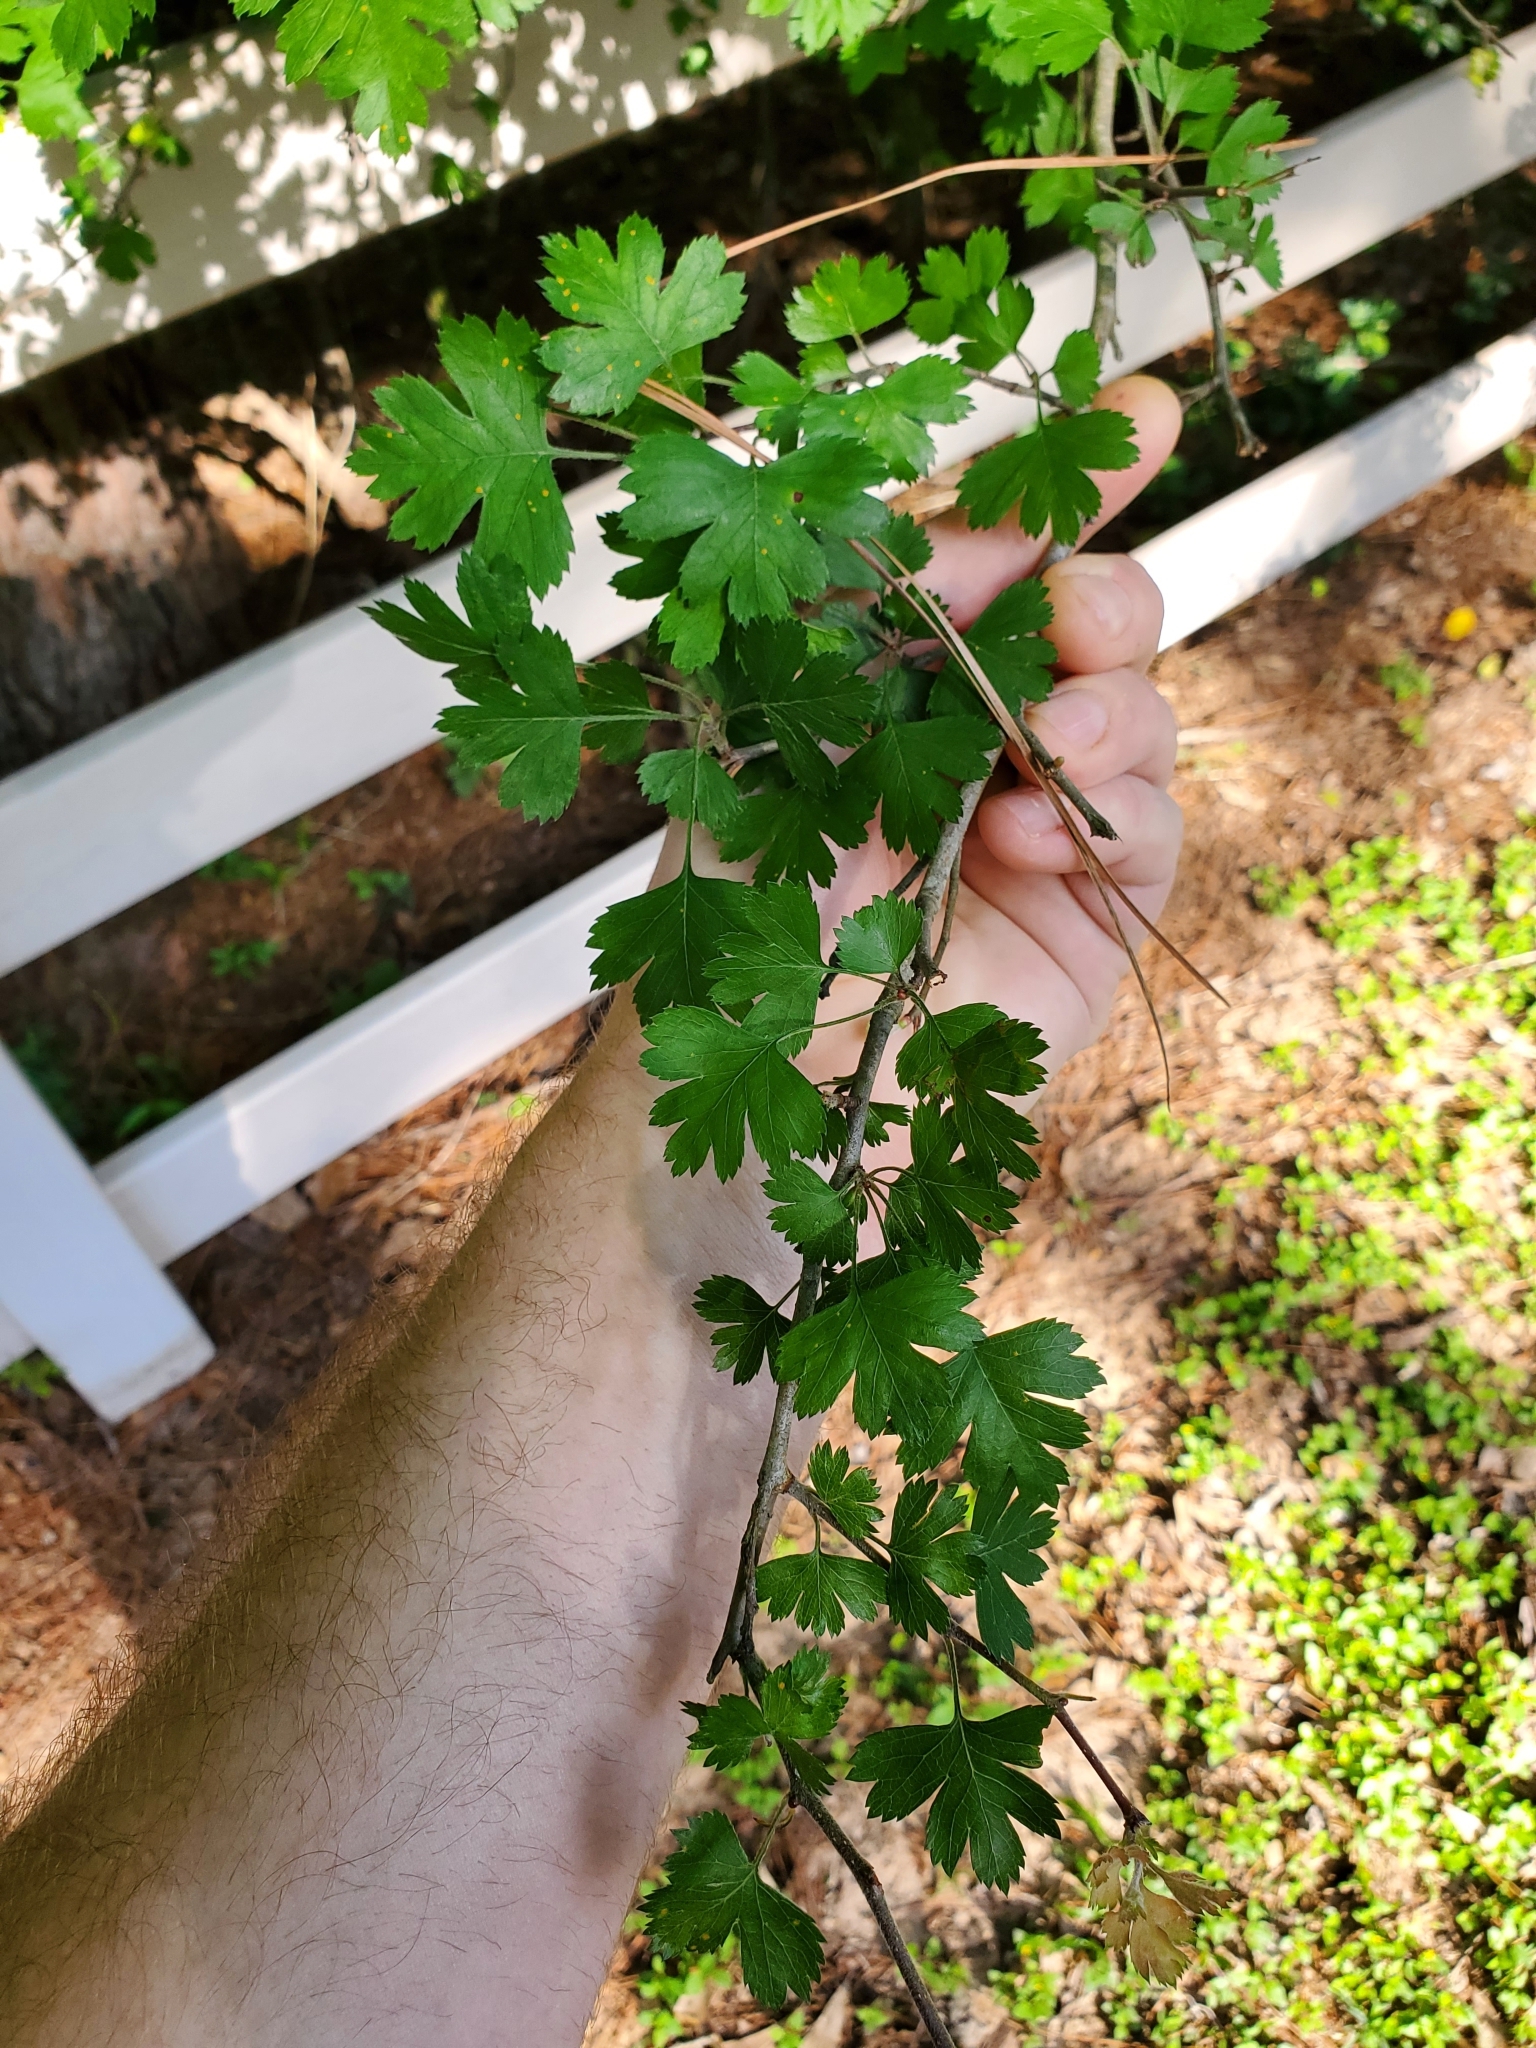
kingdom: Plantae
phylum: Tracheophyta
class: Magnoliopsida
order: Rosales
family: Rosaceae
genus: Crataegus
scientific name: Crataegus marshallii
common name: Parsley-hawthorn
